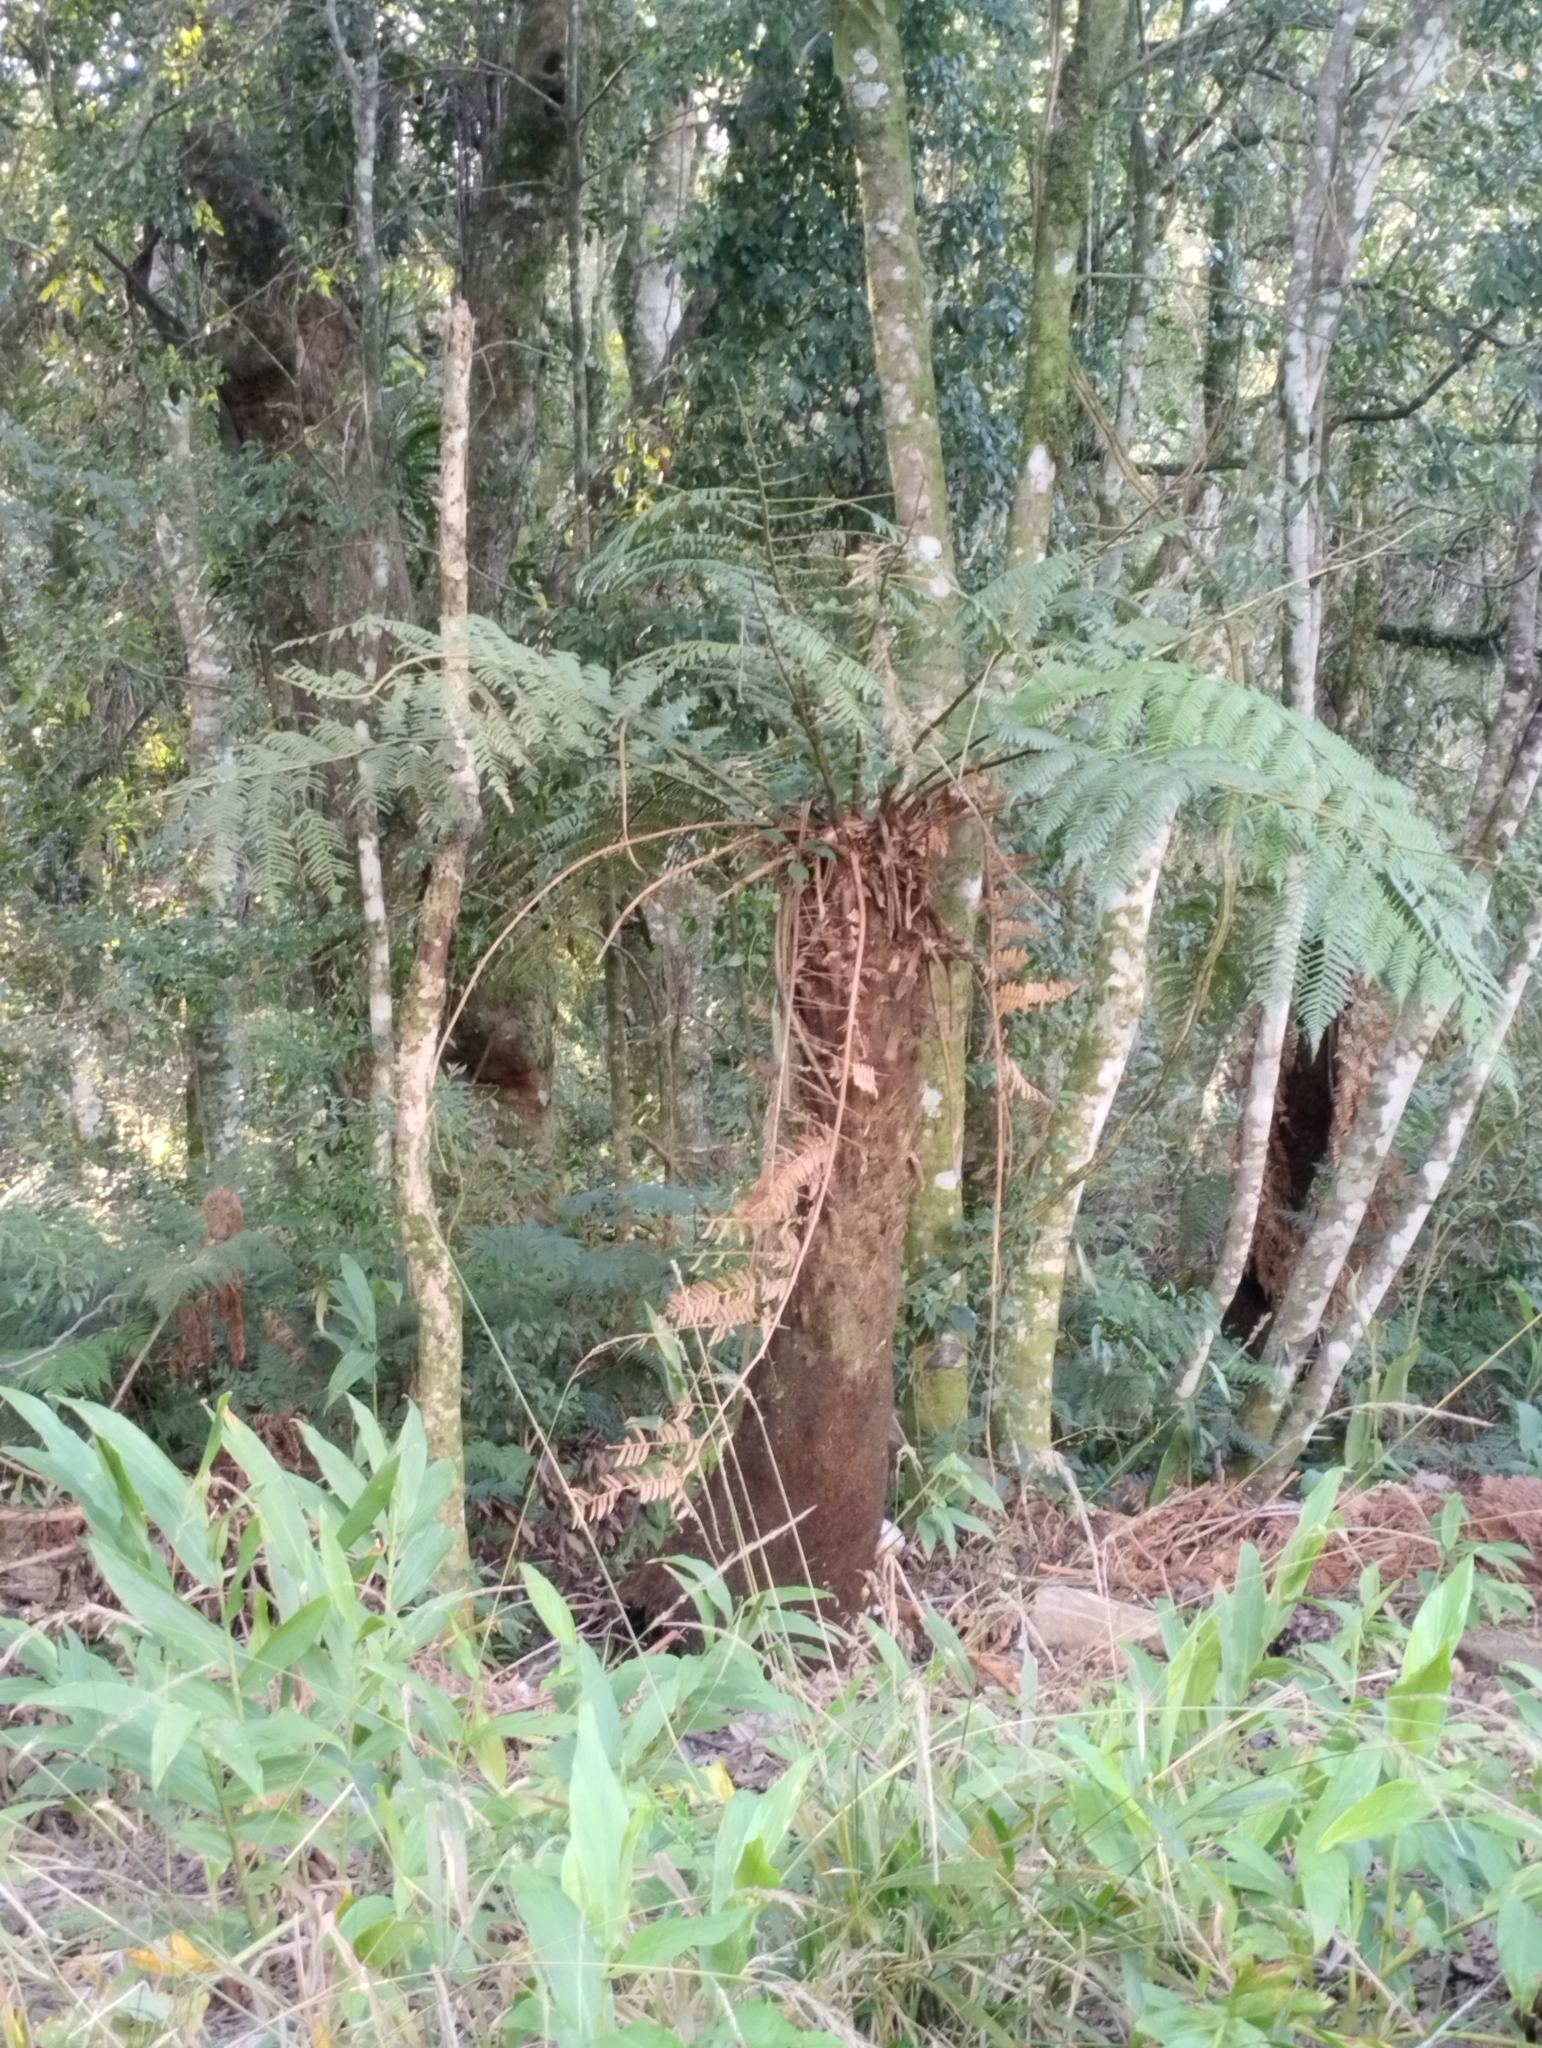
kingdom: Plantae
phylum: Tracheophyta
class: Polypodiopsida
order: Cyatheales
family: Dicksoniaceae
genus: Dicksonia
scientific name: Dicksonia sellowiana
